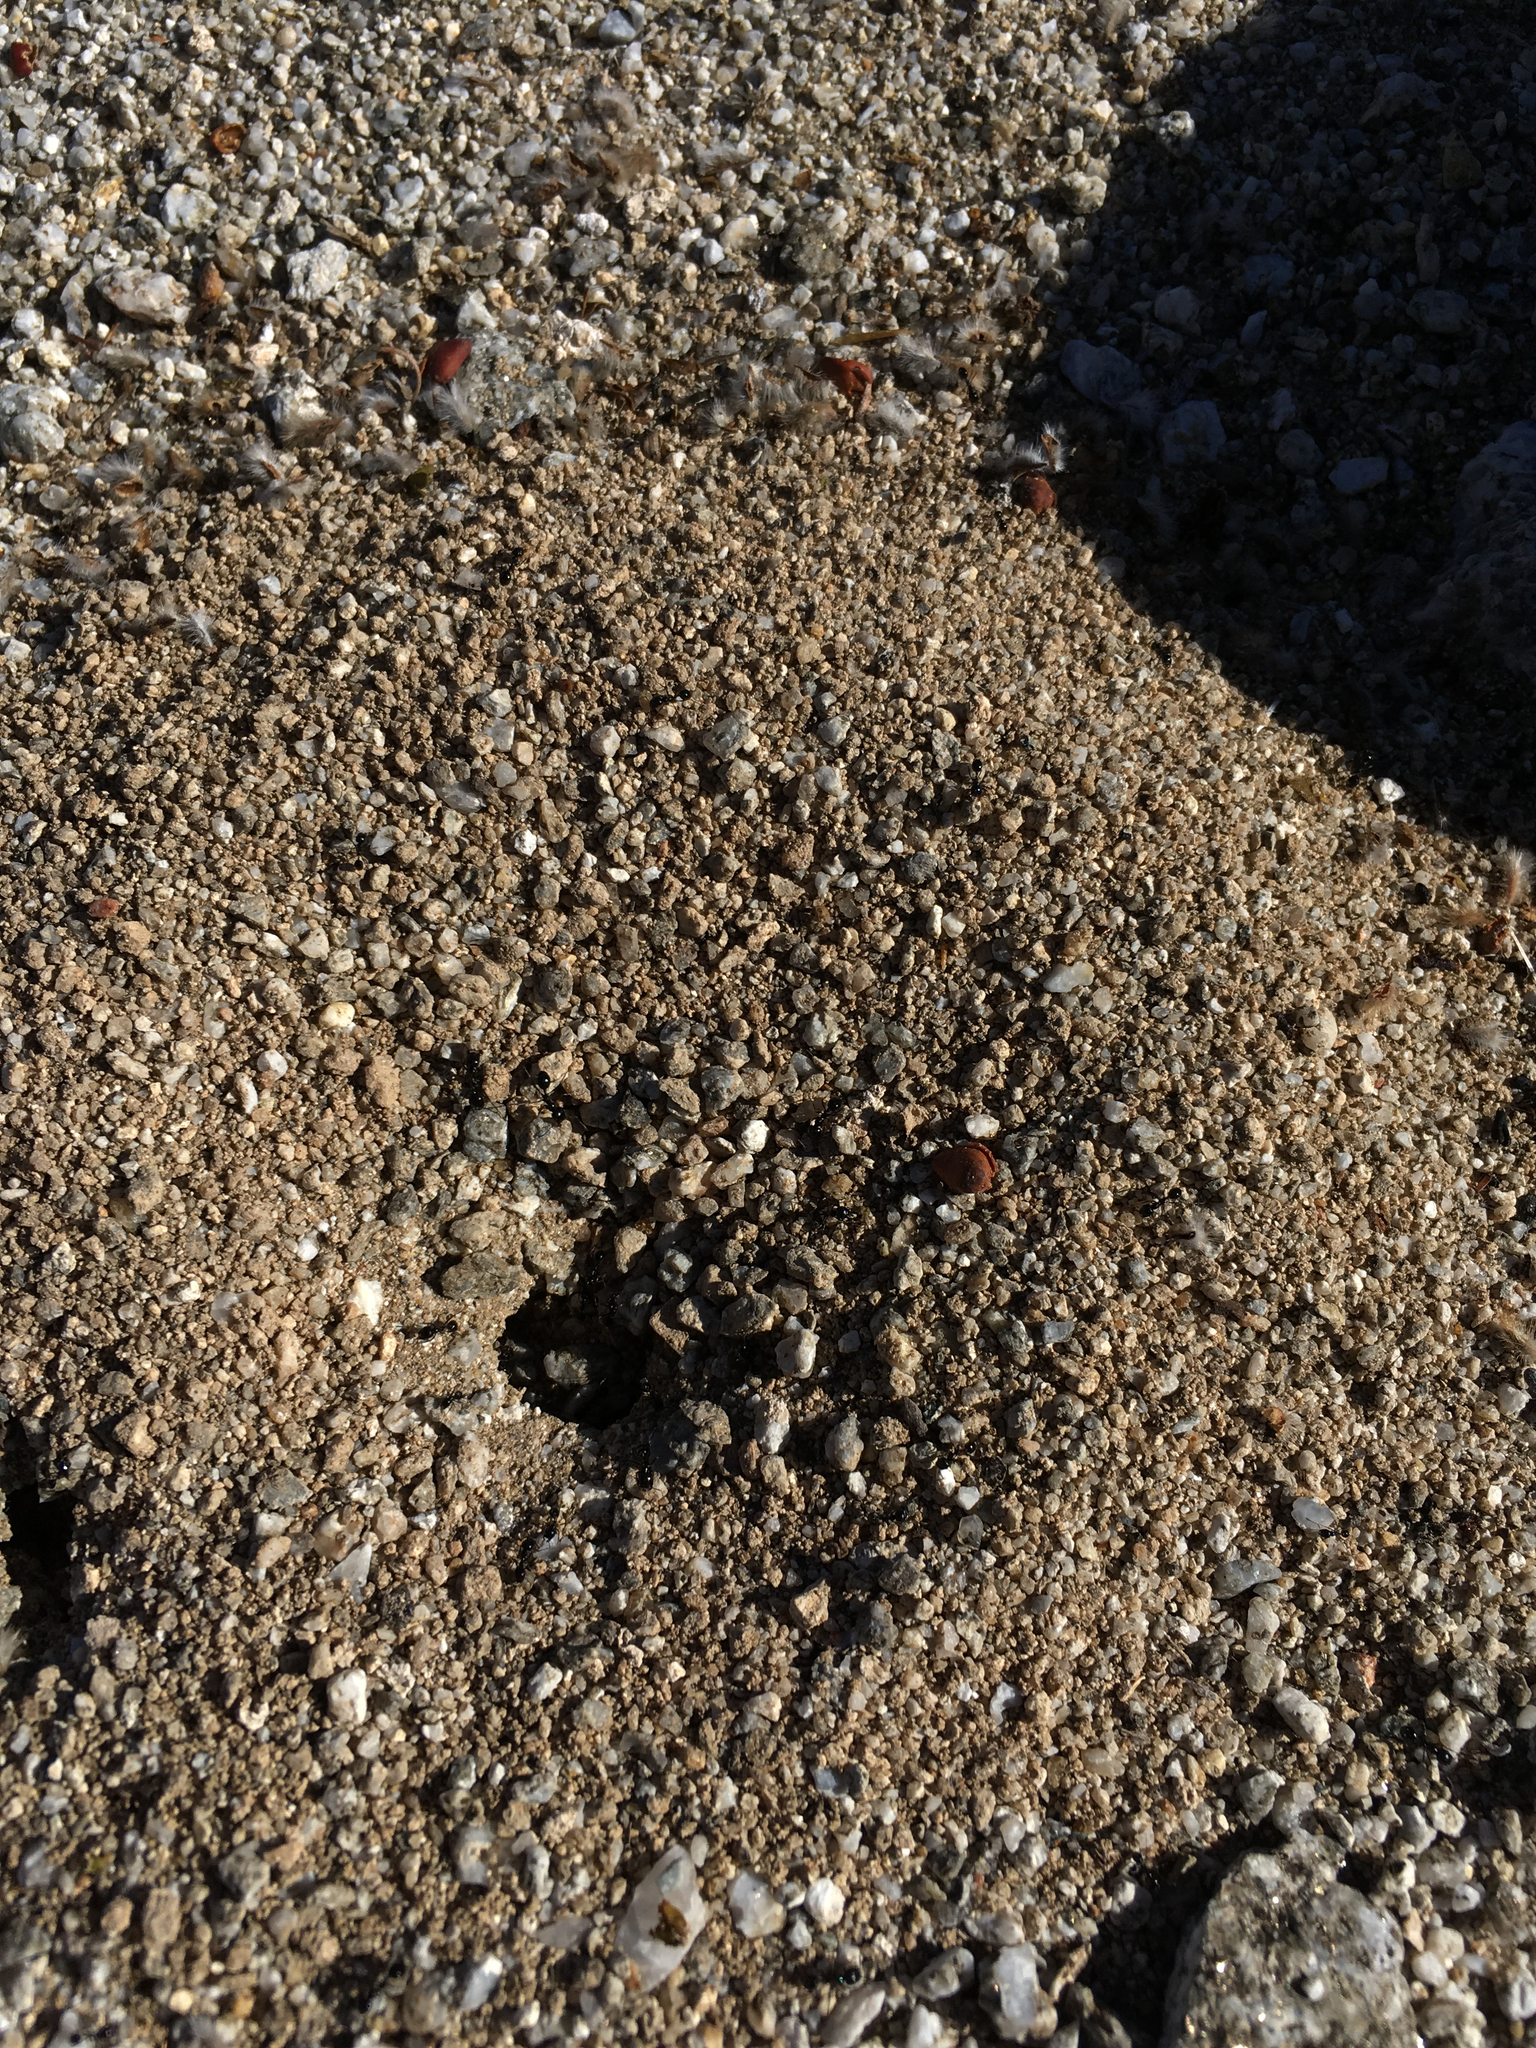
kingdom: Animalia
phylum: Arthropoda
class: Insecta
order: Hymenoptera
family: Formicidae
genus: Messor
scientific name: Messor pergandei
